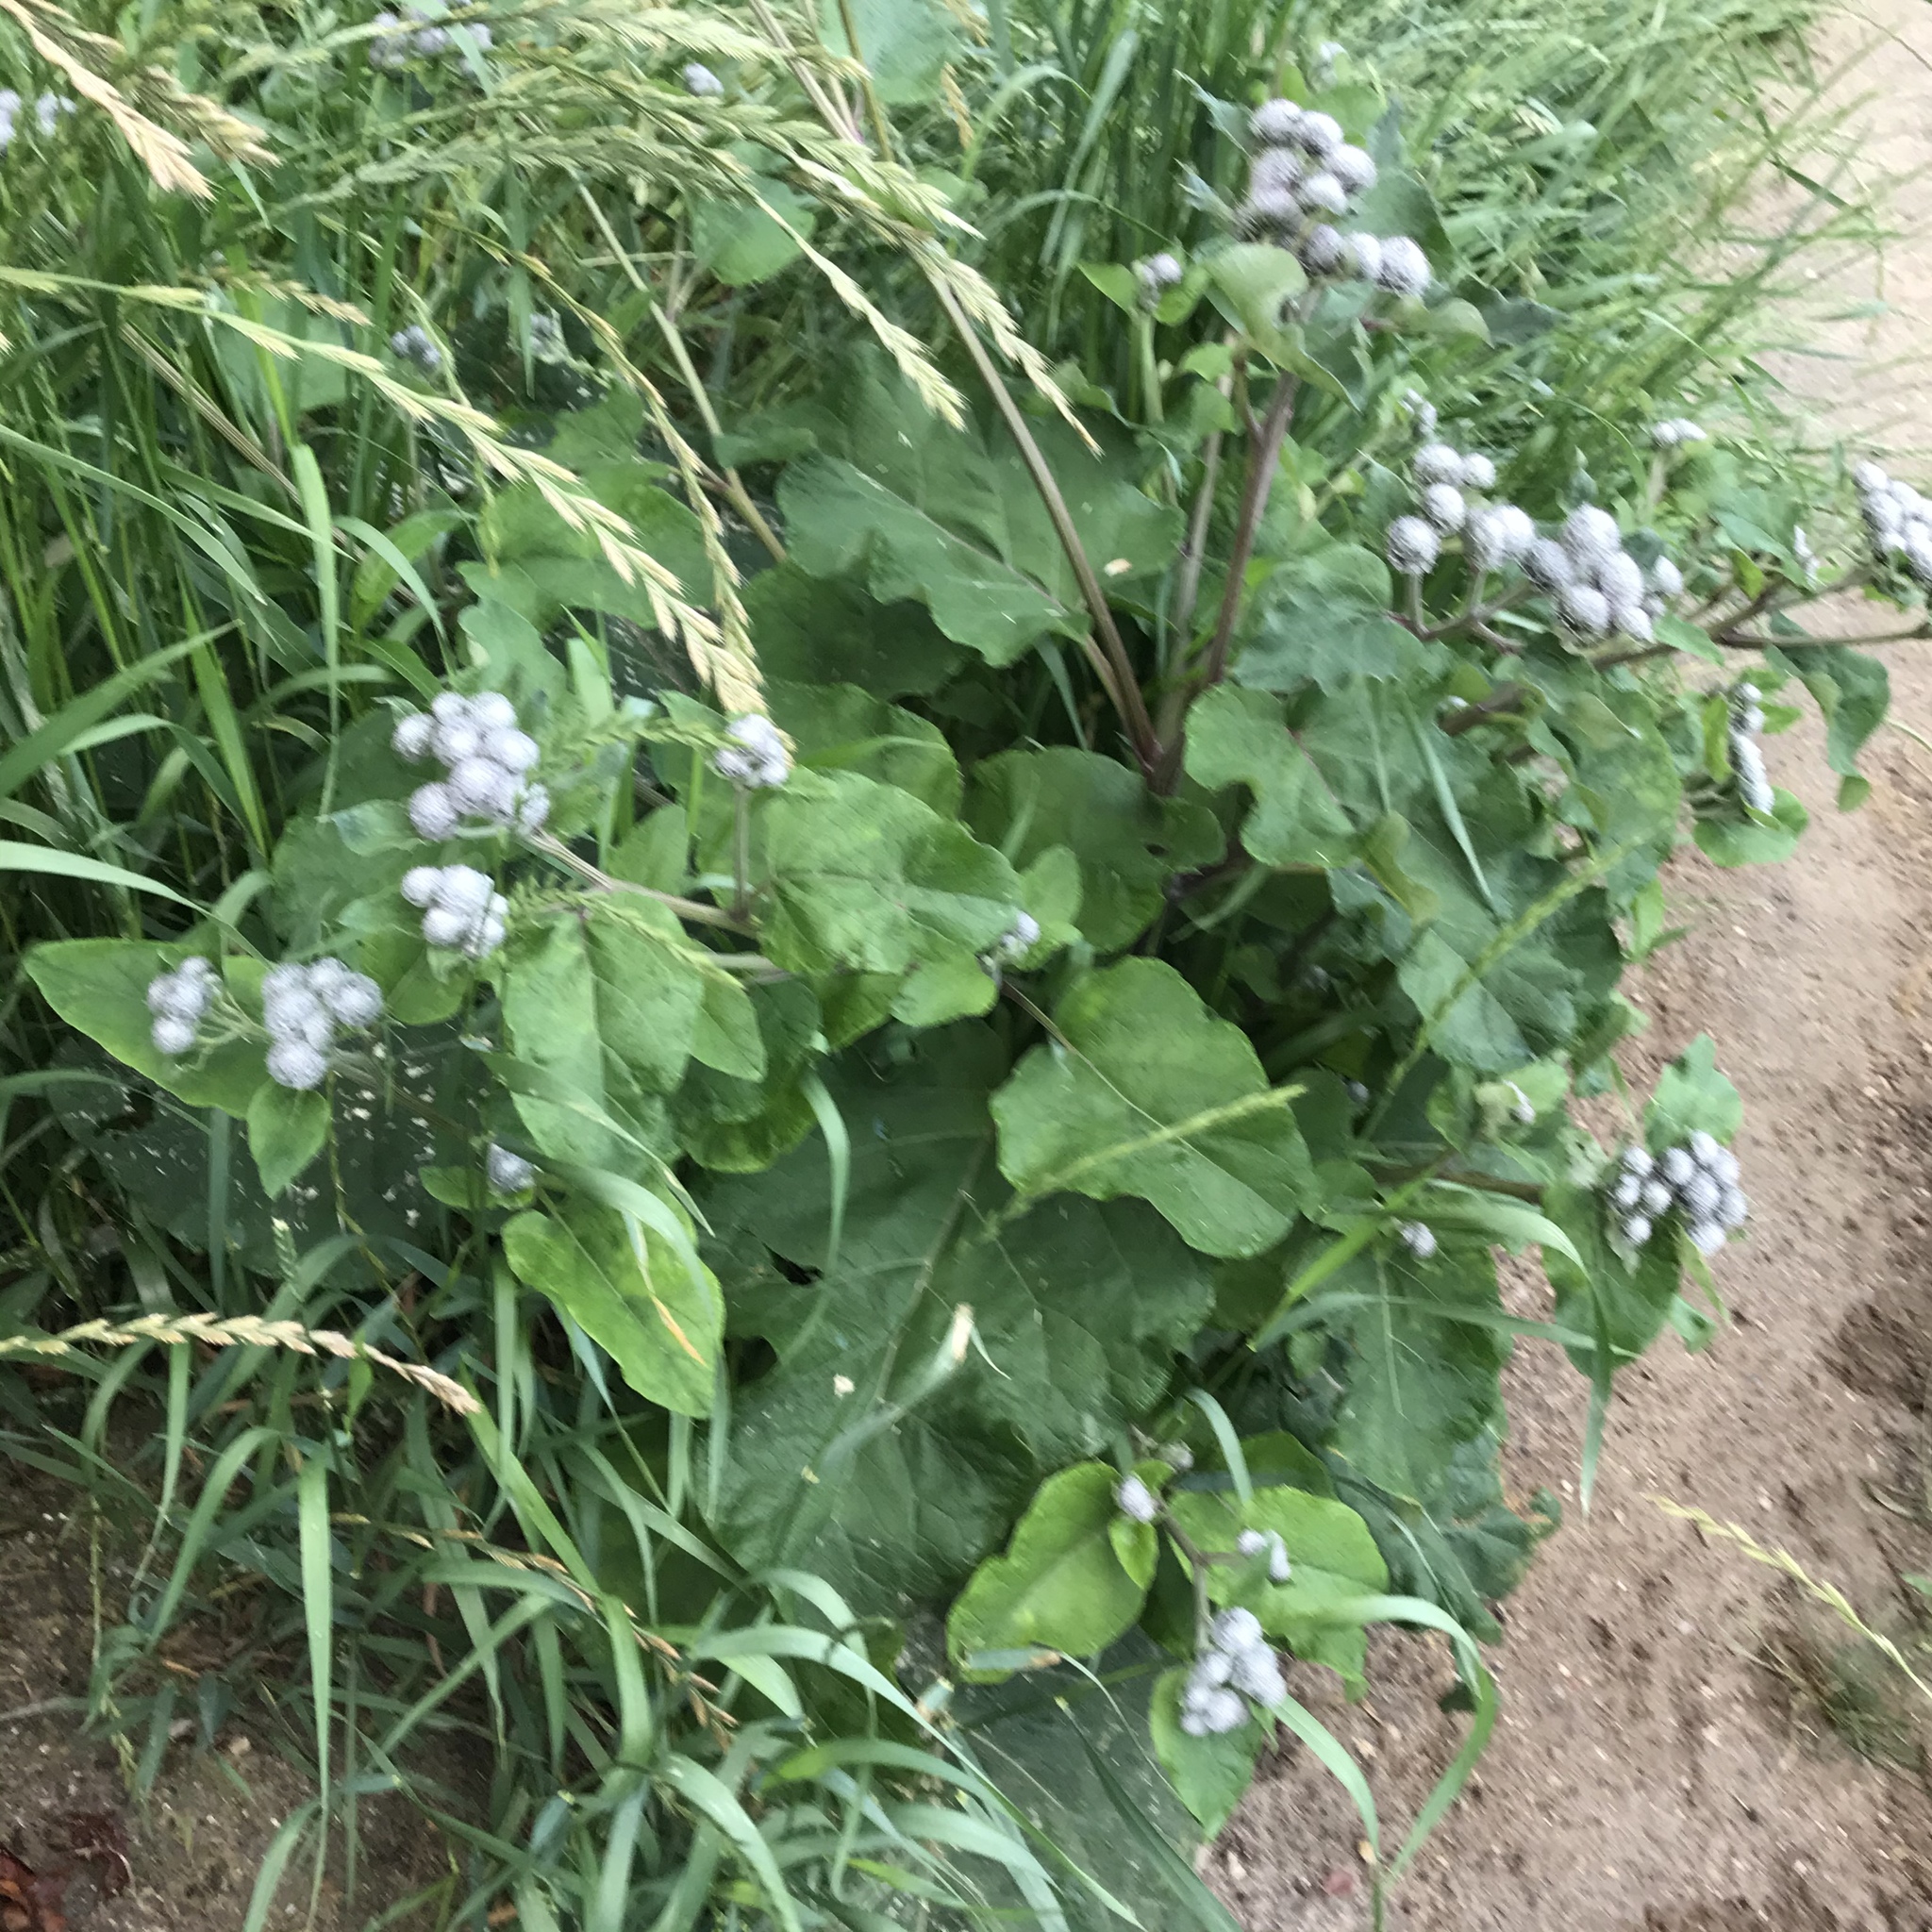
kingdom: Plantae
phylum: Tracheophyta
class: Magnoliopsida
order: Asterales
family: Asteraceae
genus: Arctium
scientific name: Arctium tomentosum
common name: Woolly burdock
